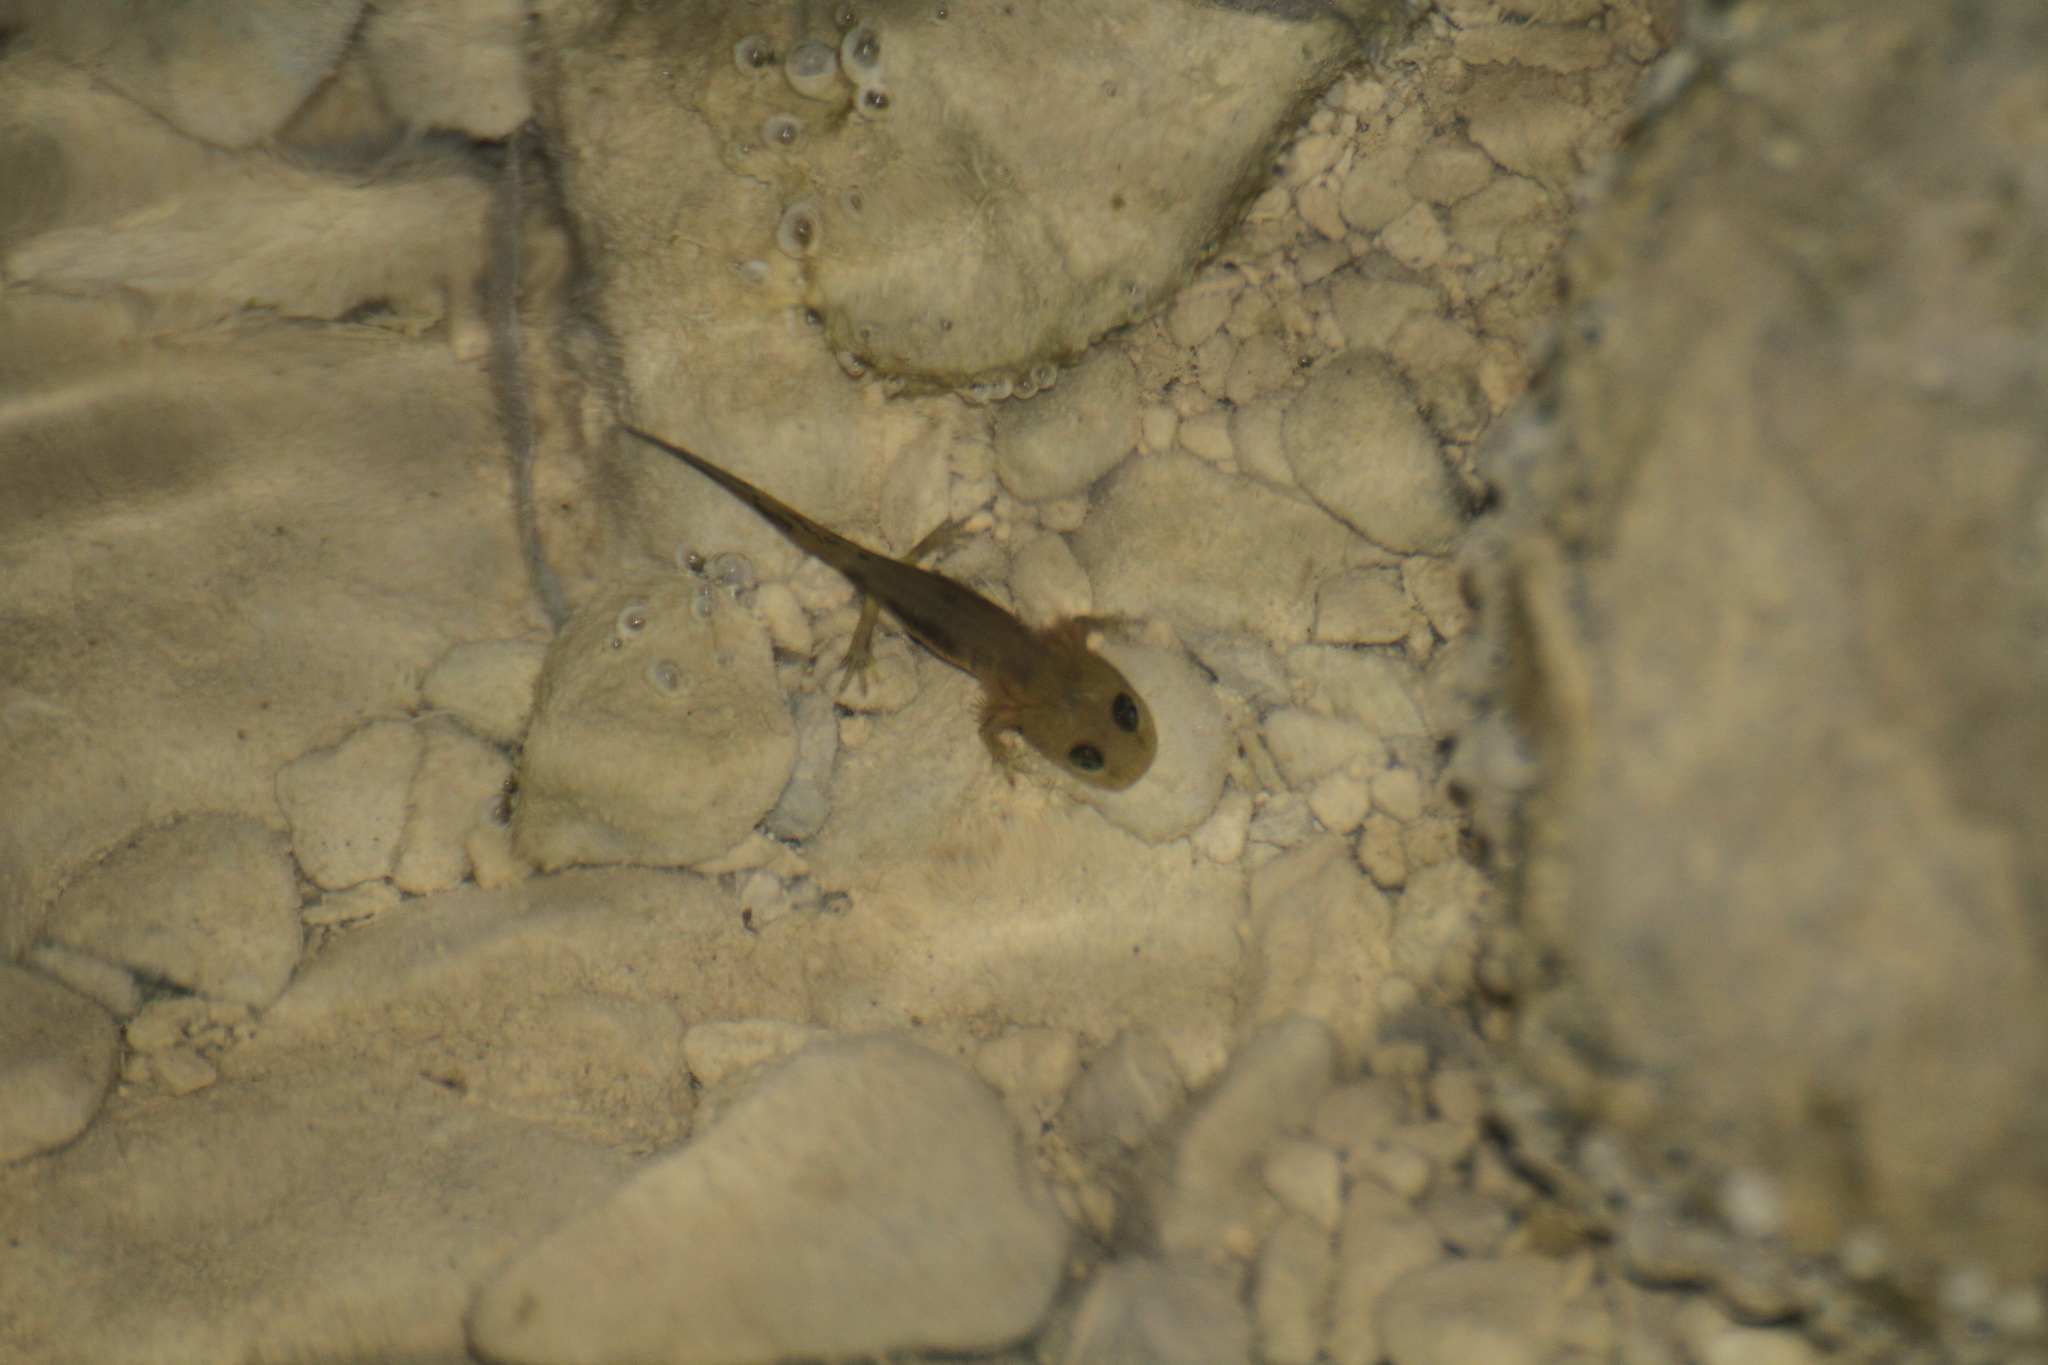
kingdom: Animalia
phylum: Chordata
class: Amphibia
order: Caudata
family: Salamandridae
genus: Salamandra
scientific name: Salamandra salamandra
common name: Fire salamander
